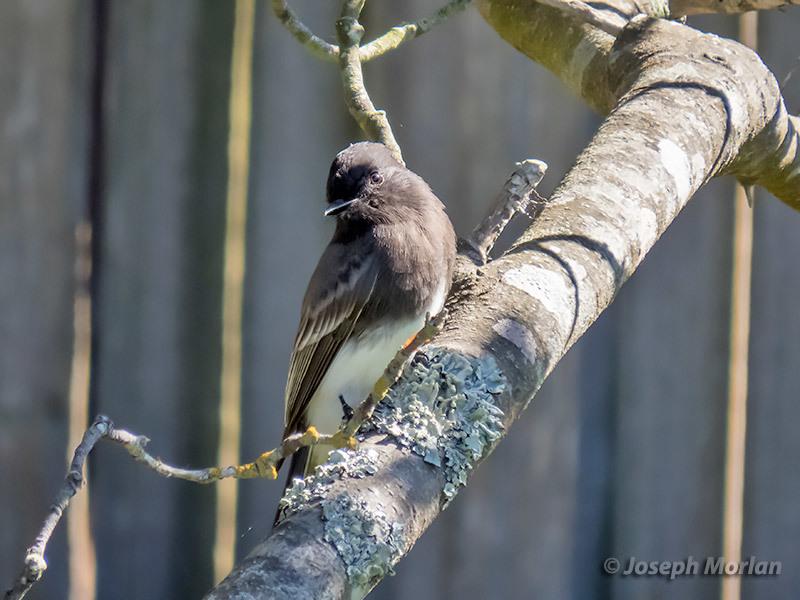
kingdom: Animalia
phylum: Chordata
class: Aves
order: Passeriformes
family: Tyrannidae
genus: Sayornis
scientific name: Sayornis nigricans
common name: Black phoebe
